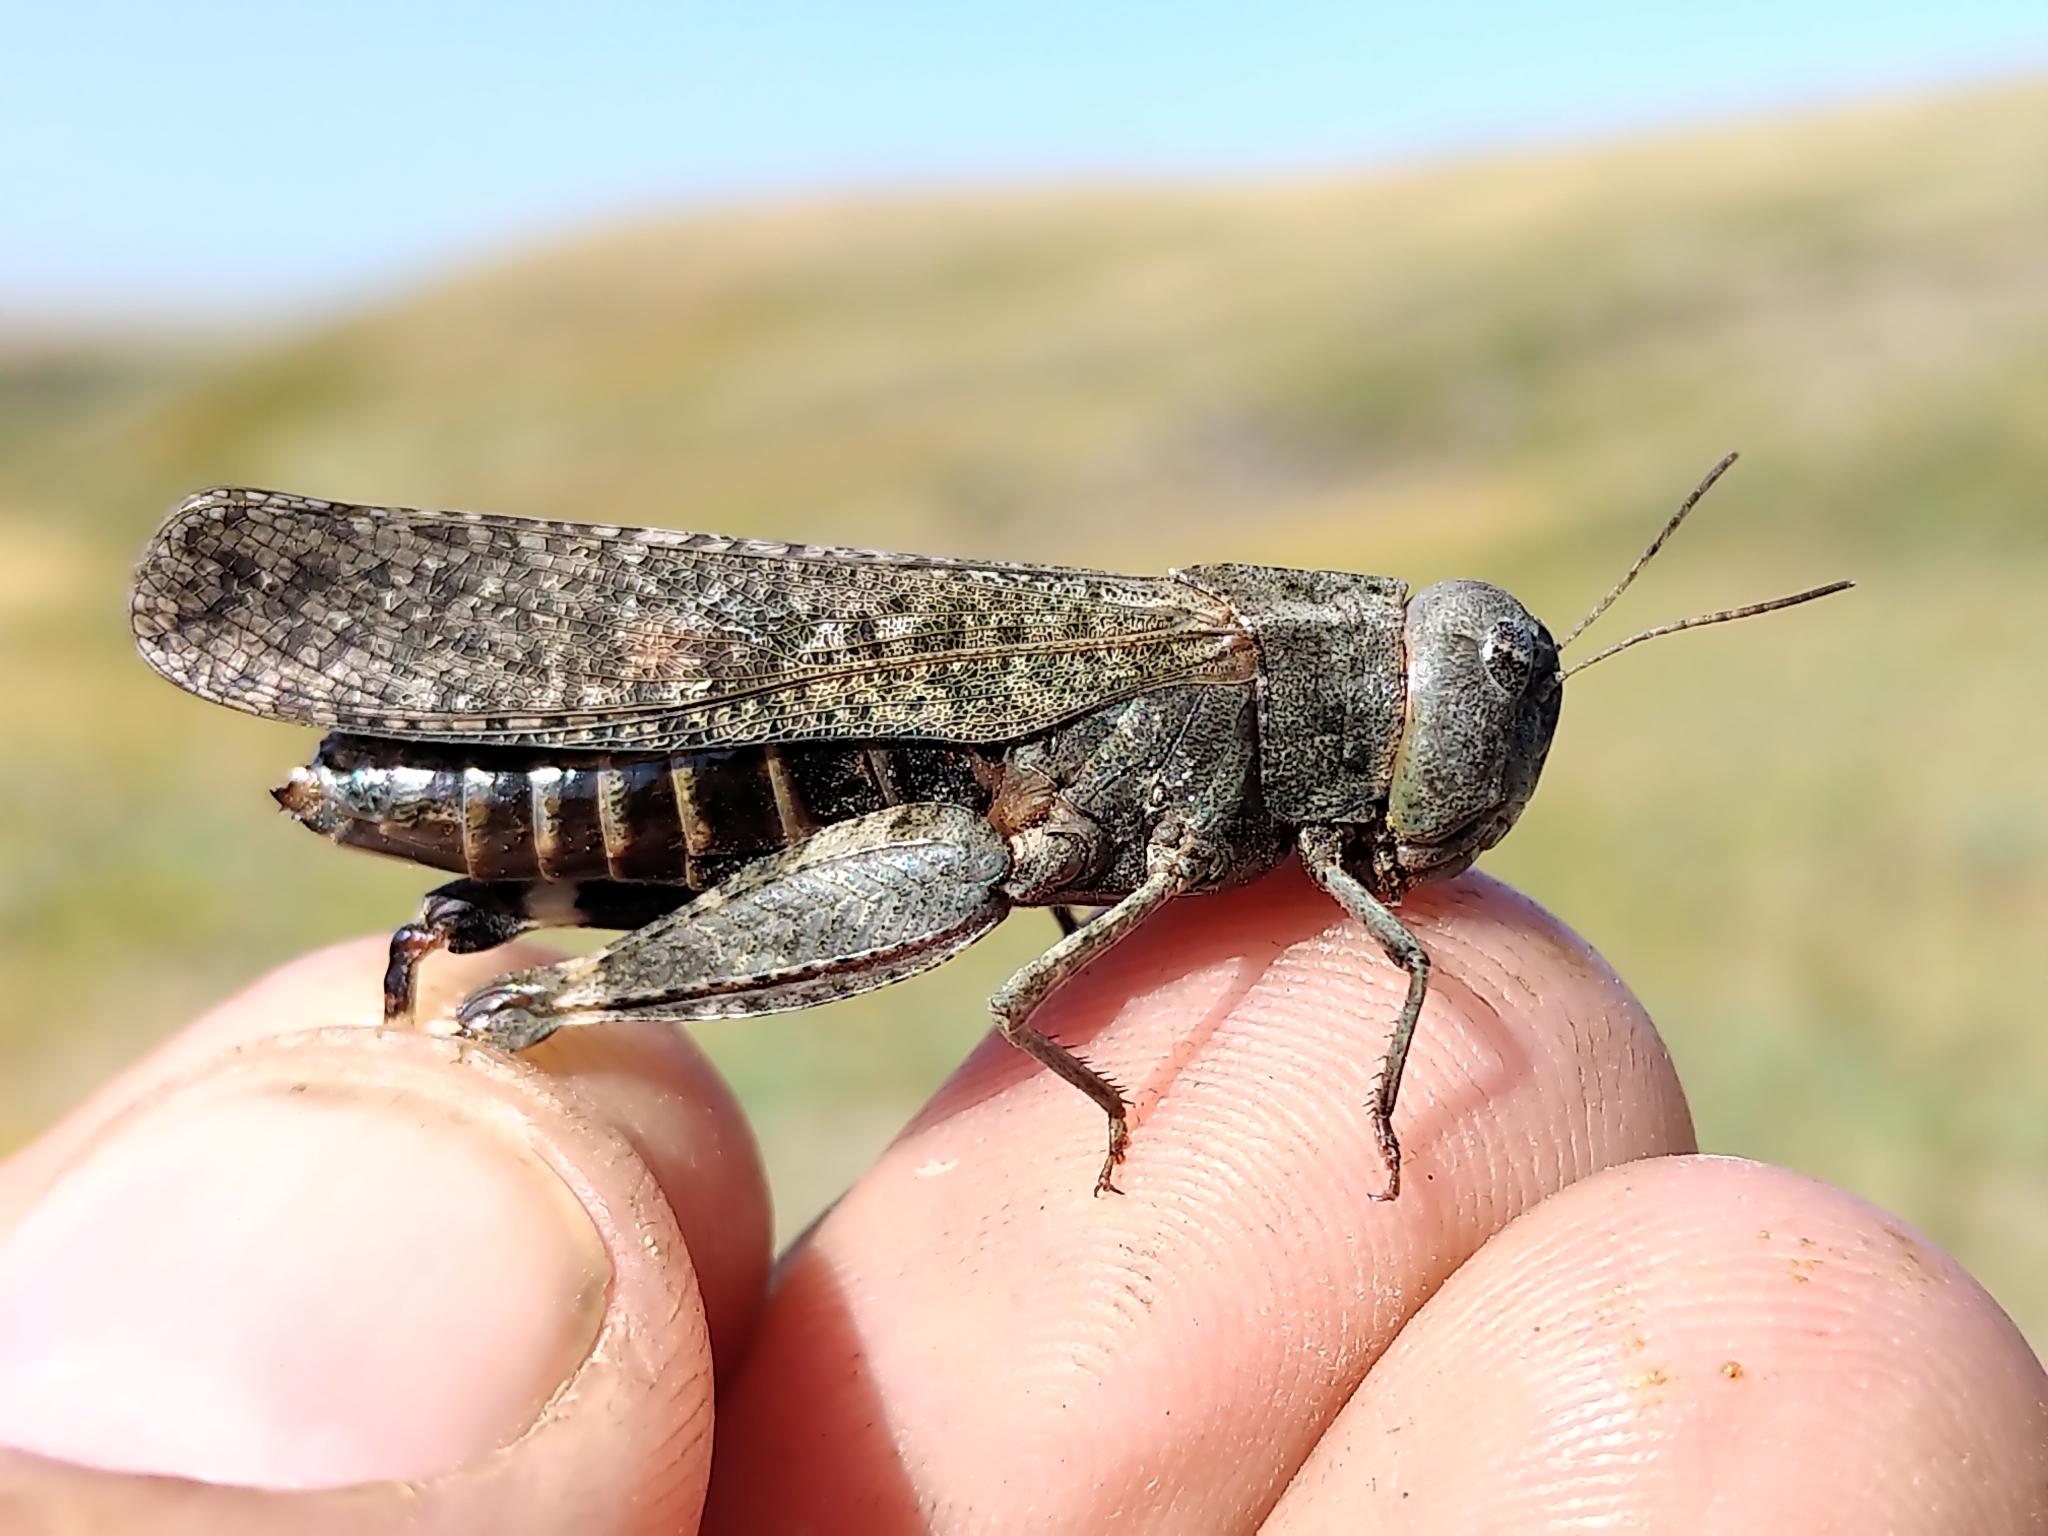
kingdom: Animalia
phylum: Arthropoda
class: Insecta
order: Orthoptera
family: Acrididae
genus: Arphia
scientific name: Arphia pseudo-nietana
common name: Red-winged grasshopper
